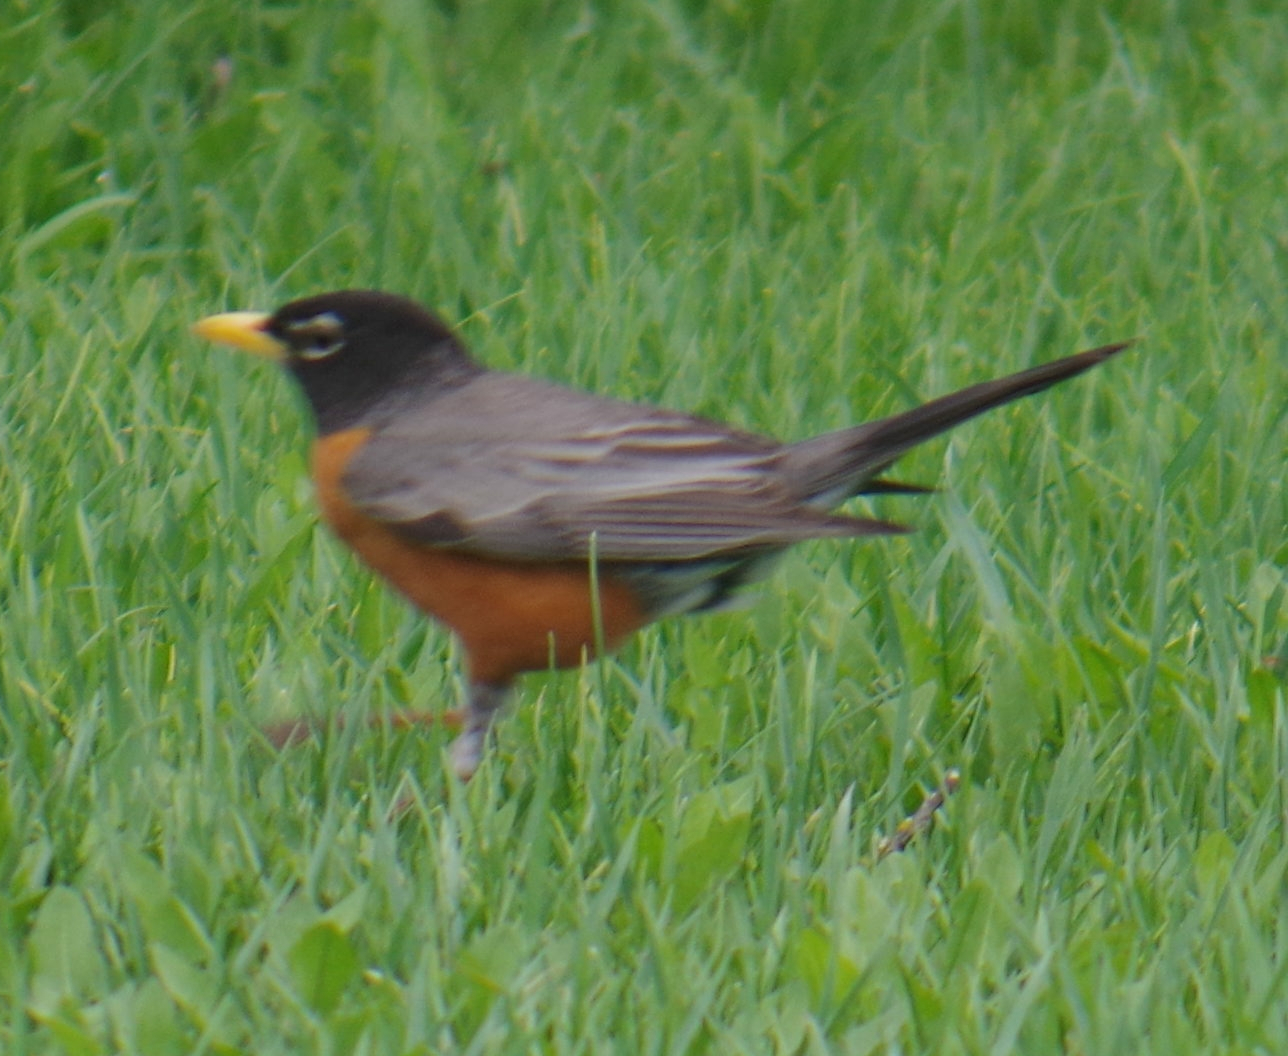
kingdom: Animalia
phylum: Chordata
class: Aves
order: Passeriformes
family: Turdidae
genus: Turdus
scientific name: Turdus migratorius
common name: American robin
